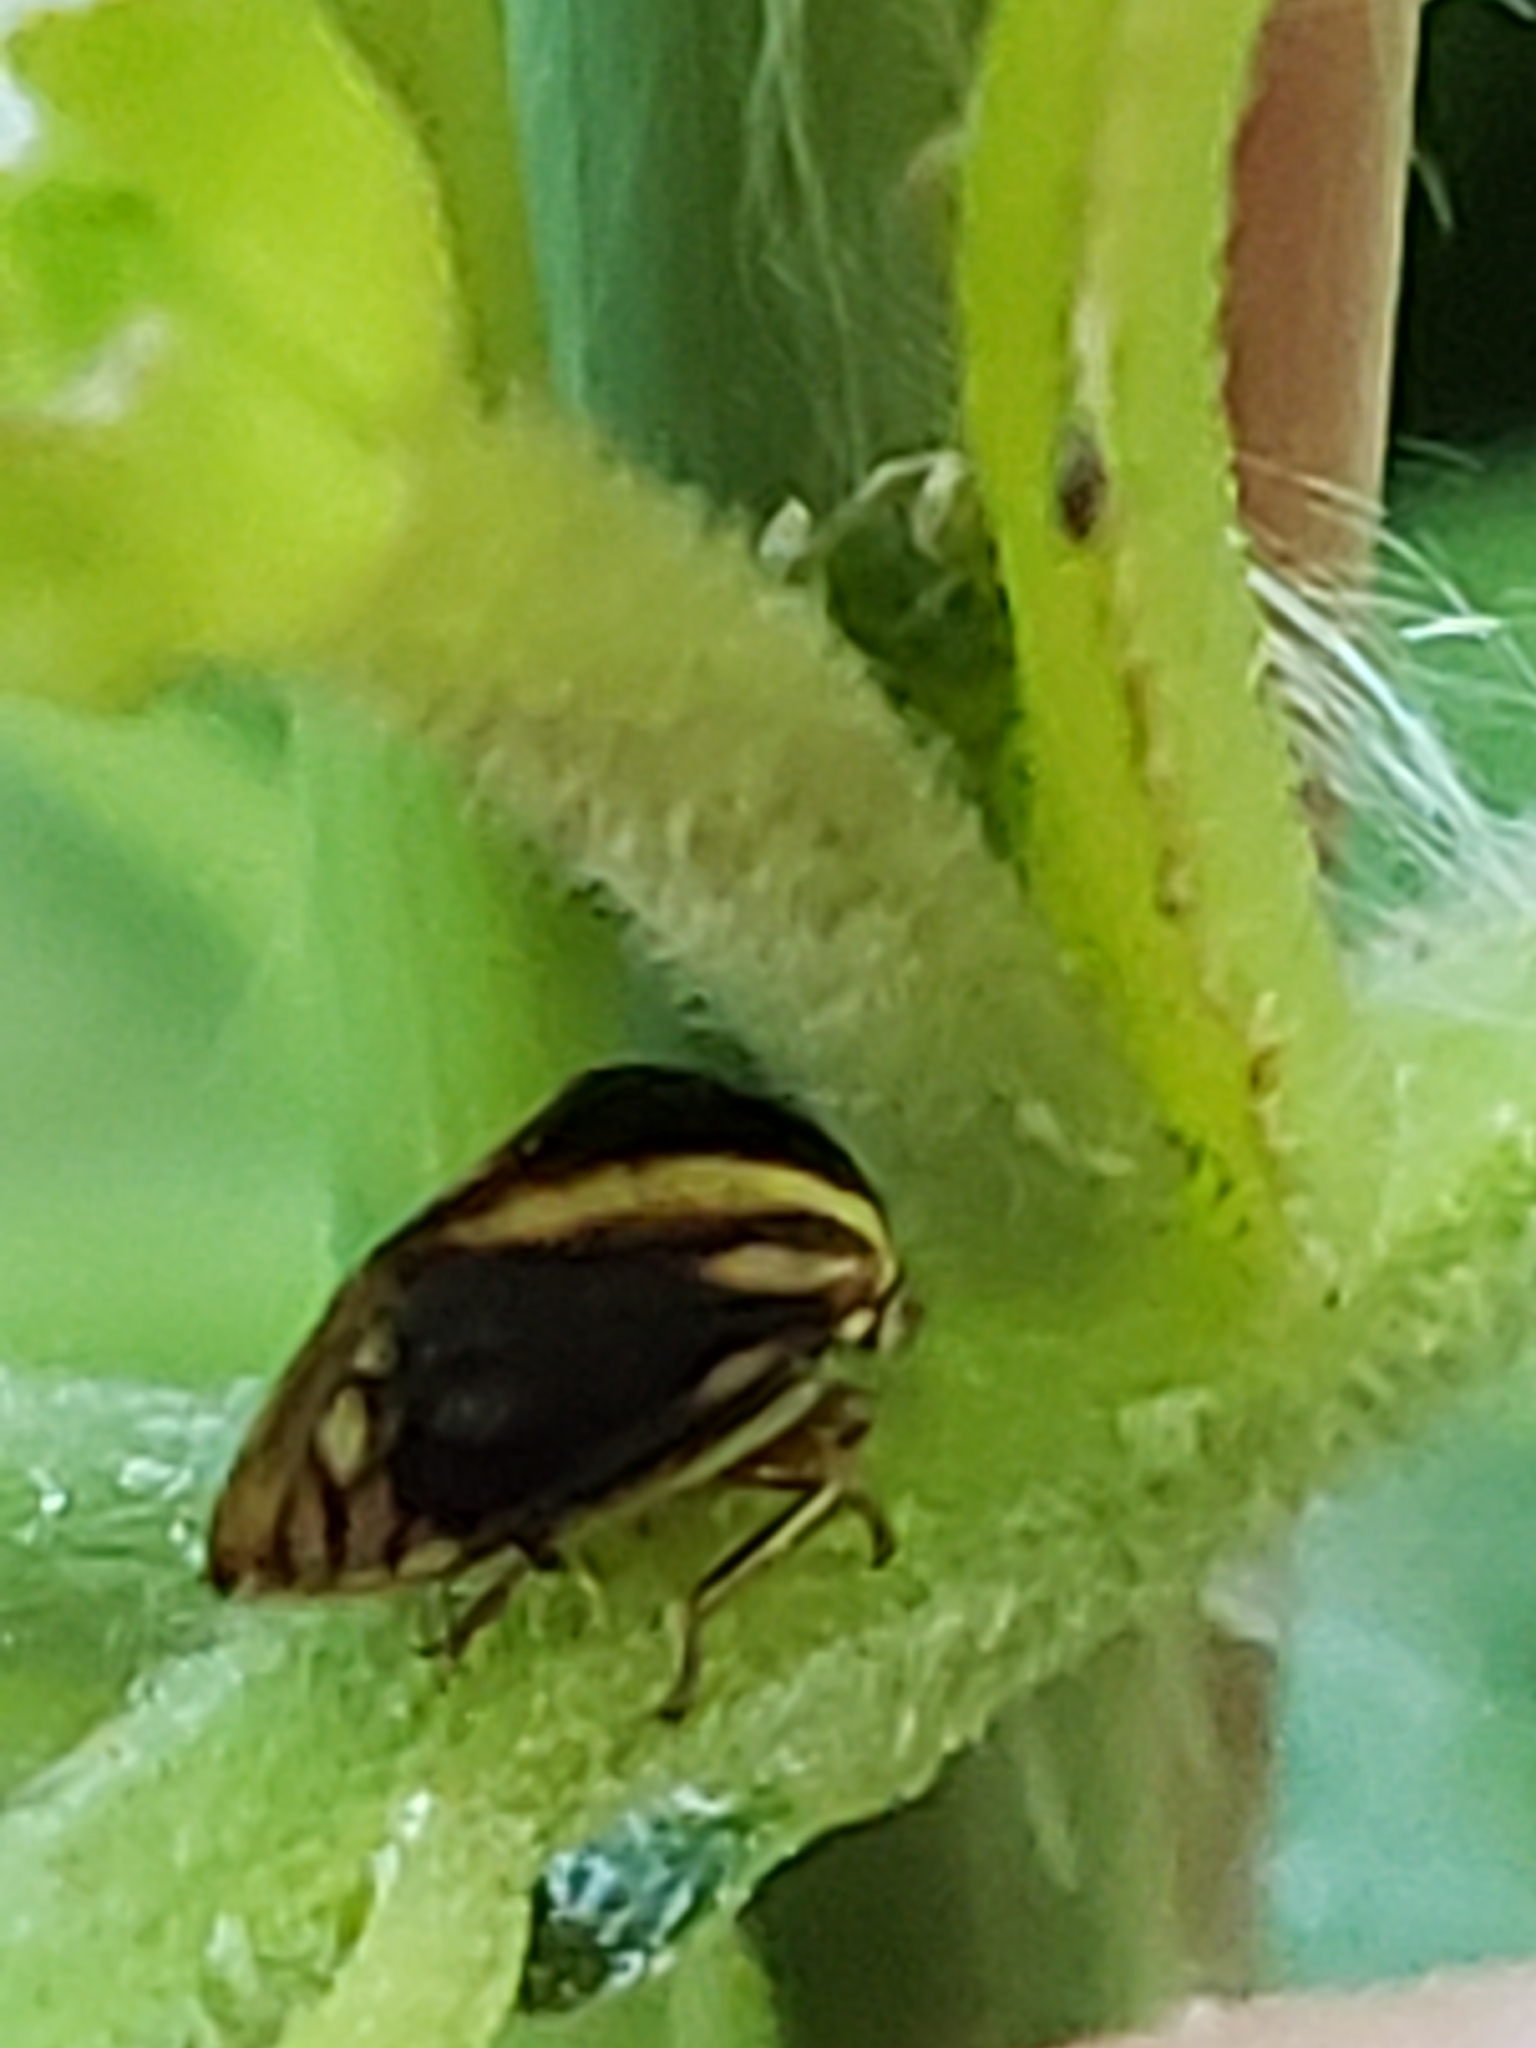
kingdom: Animalia
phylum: Arthropoda
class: Insecta
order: Hemiptera
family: Membracidae
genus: Acutalis
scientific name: Acutalis tartarea
